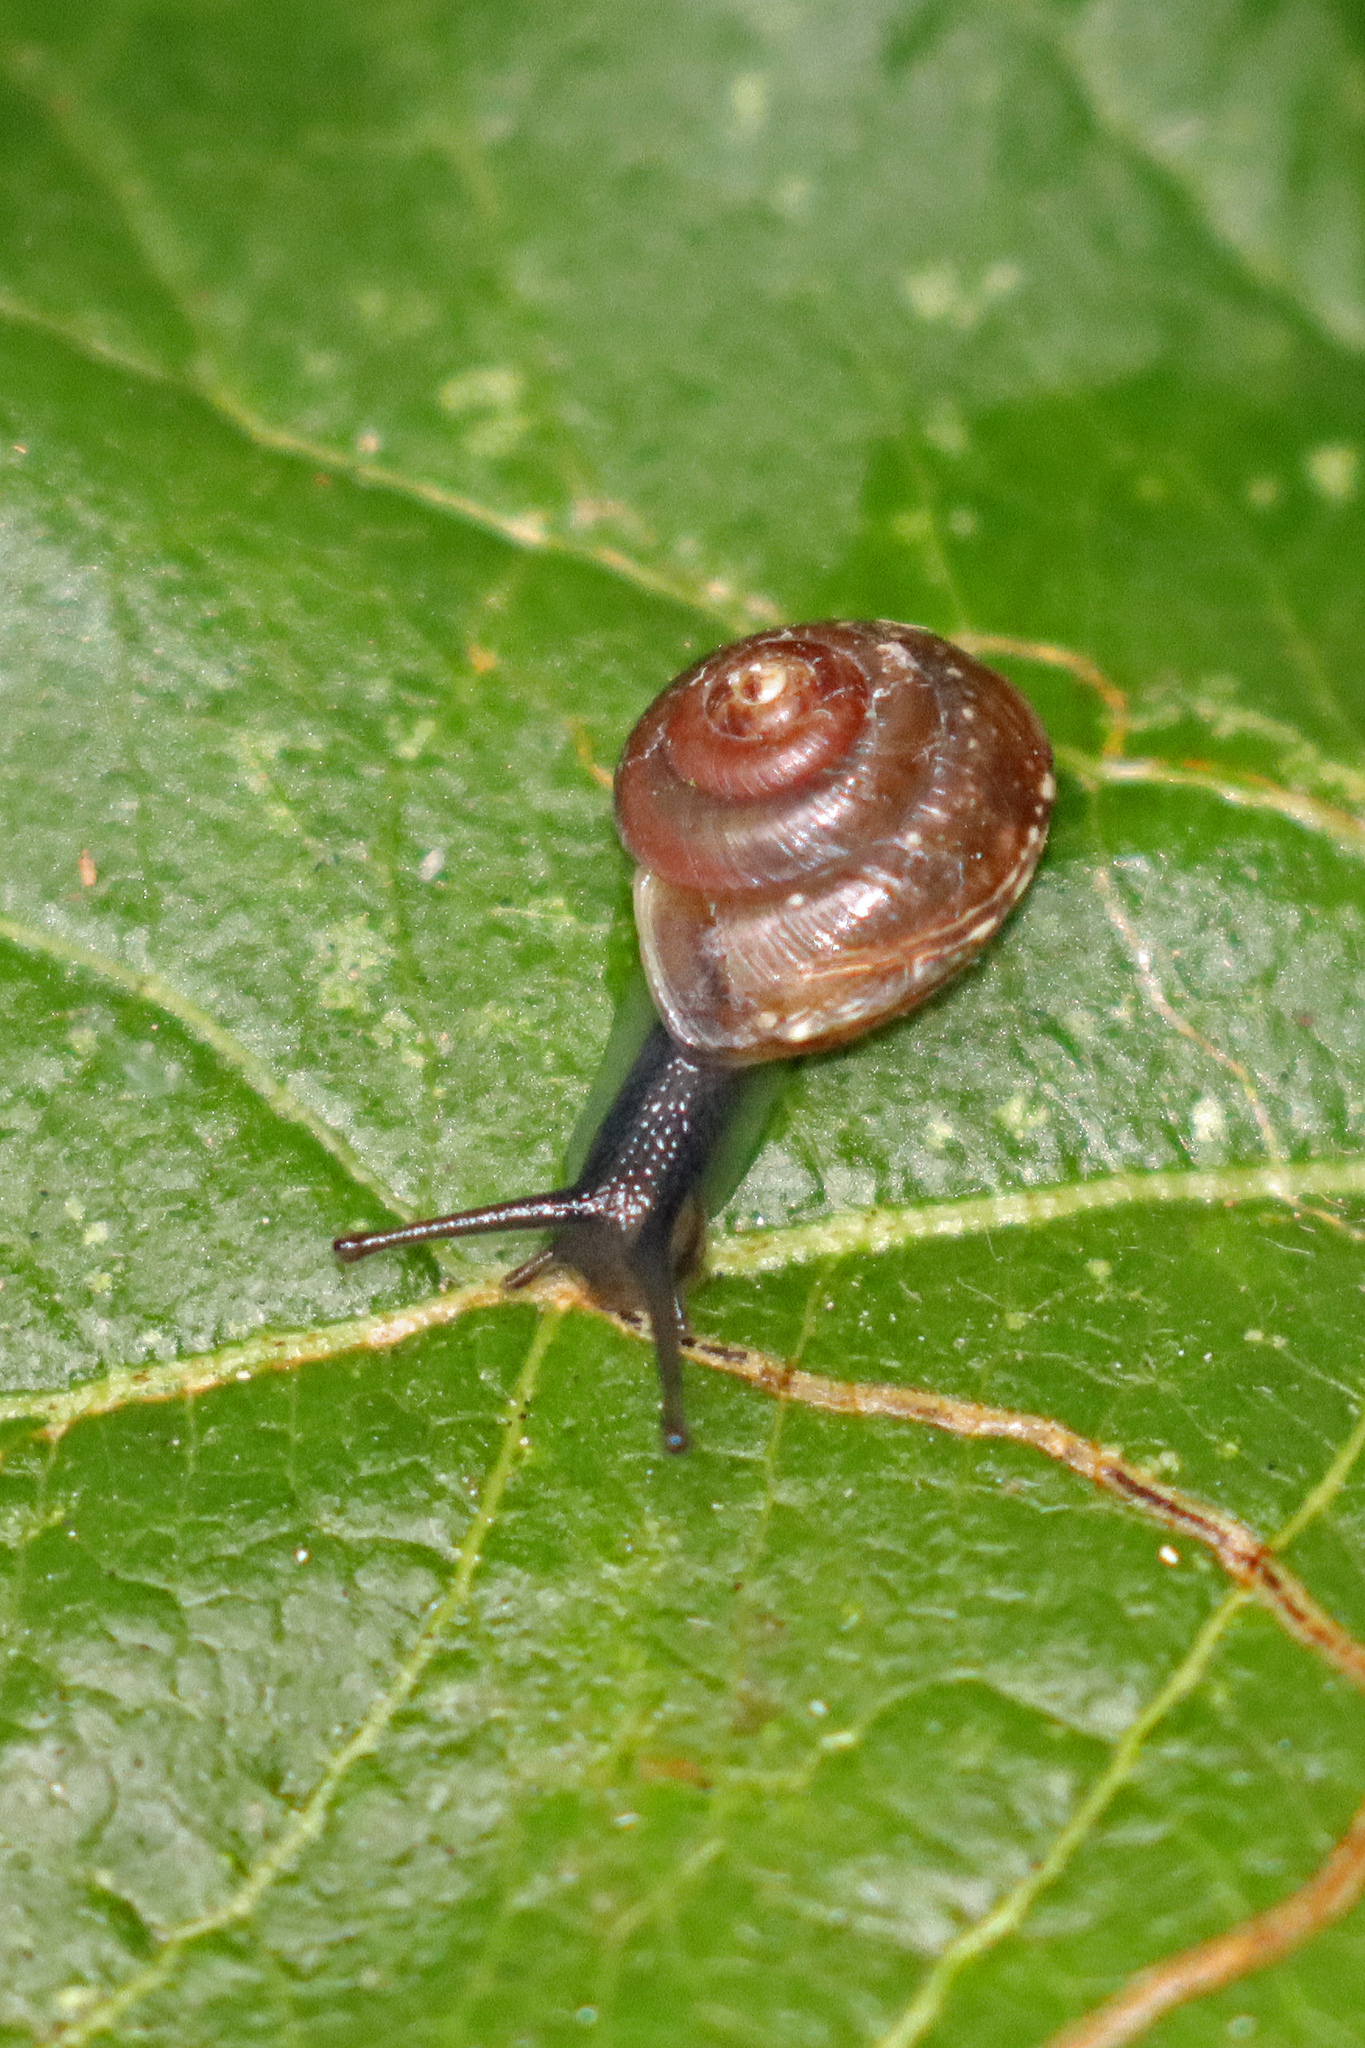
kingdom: Animalia
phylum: Mollusca
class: Gastropoda
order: Stylommatophora
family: Hygromiidae
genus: Hygromia
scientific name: Hygromia cinctella
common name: Girdled snail
